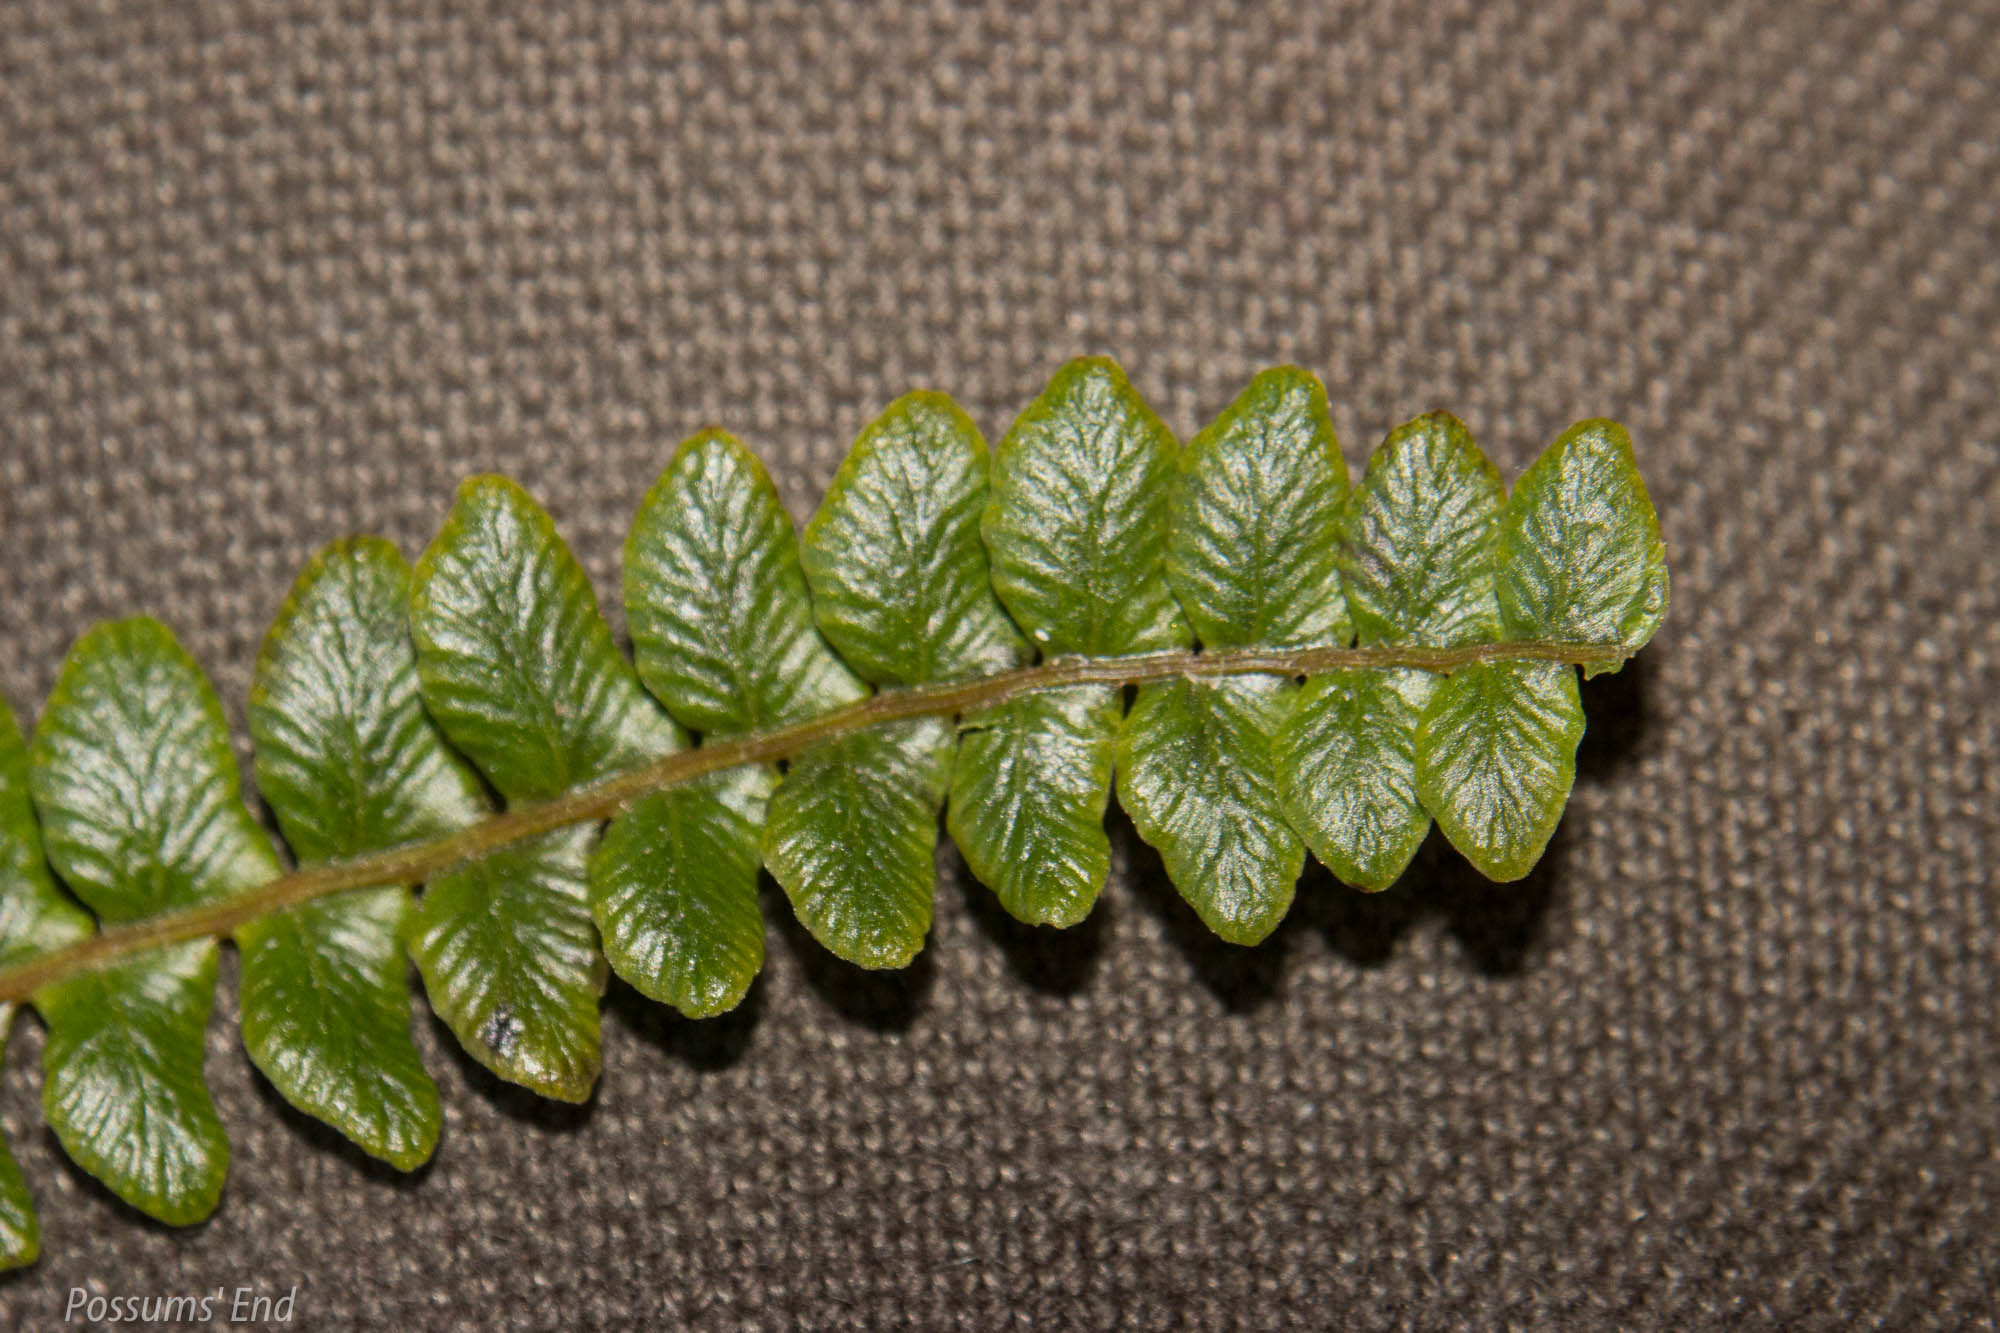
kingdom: Plantae
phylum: Tracheophyta
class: Polypodiopsida
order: Polypodiales
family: Blechnaceae
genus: Austroblechnum
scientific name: Austroblechnum penna-marina
